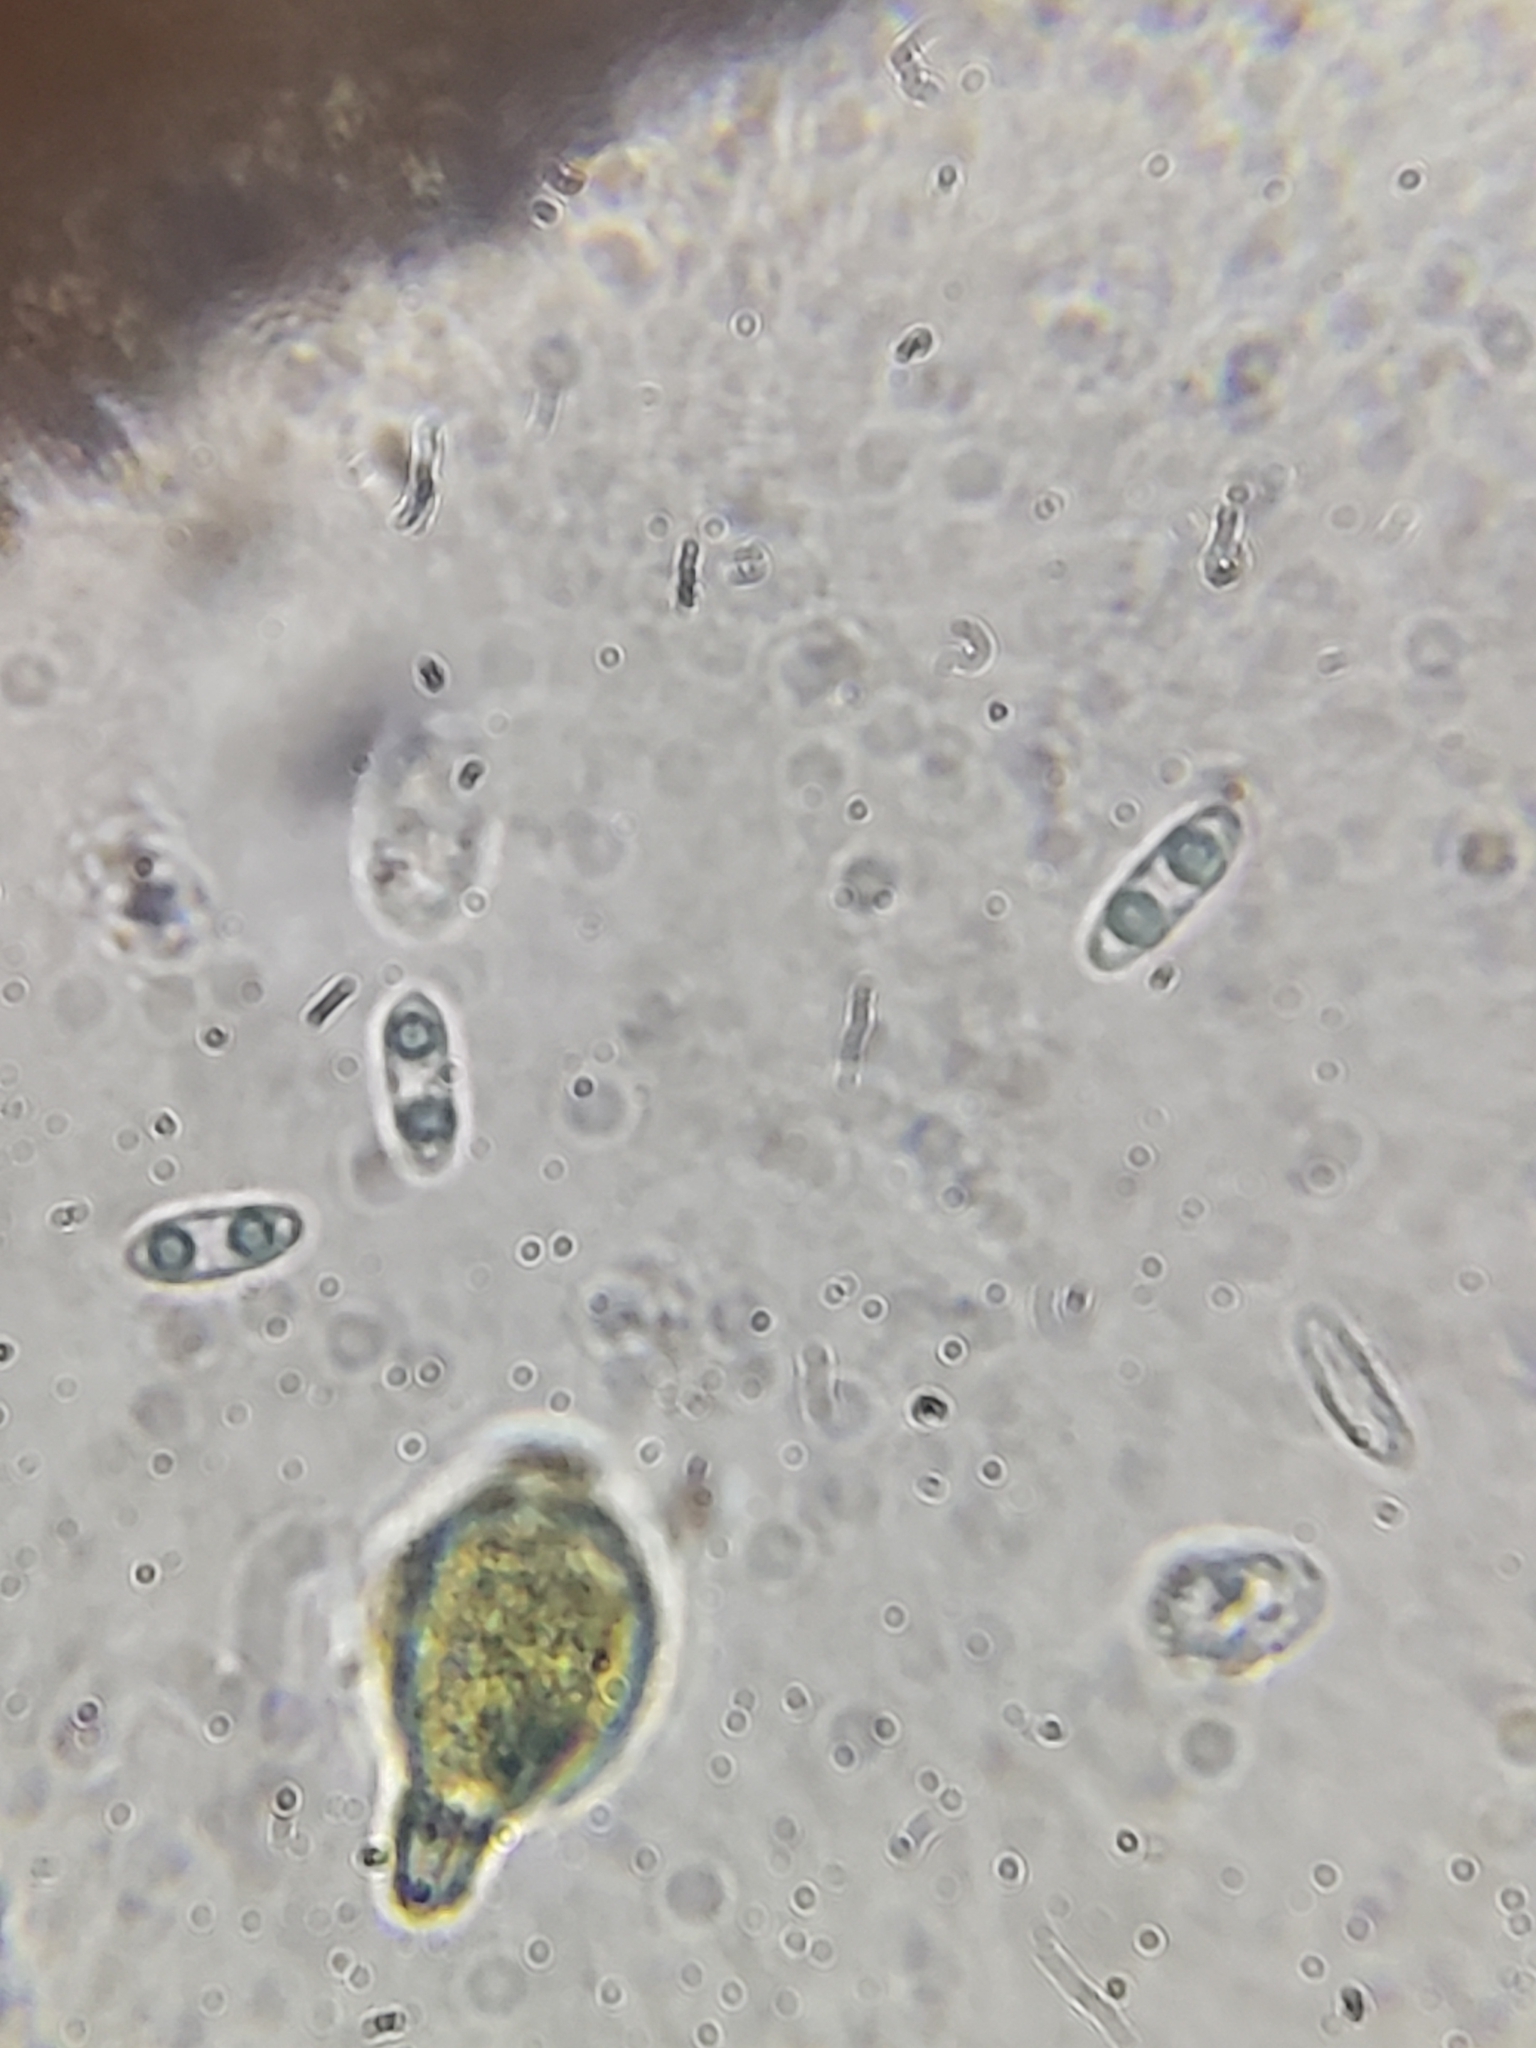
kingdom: Fungi
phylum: Ascomycota
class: Leotiomycetes
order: Helotiales
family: Cenangiaceae
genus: Chlorencoelia
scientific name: Chlorencoelia torta
